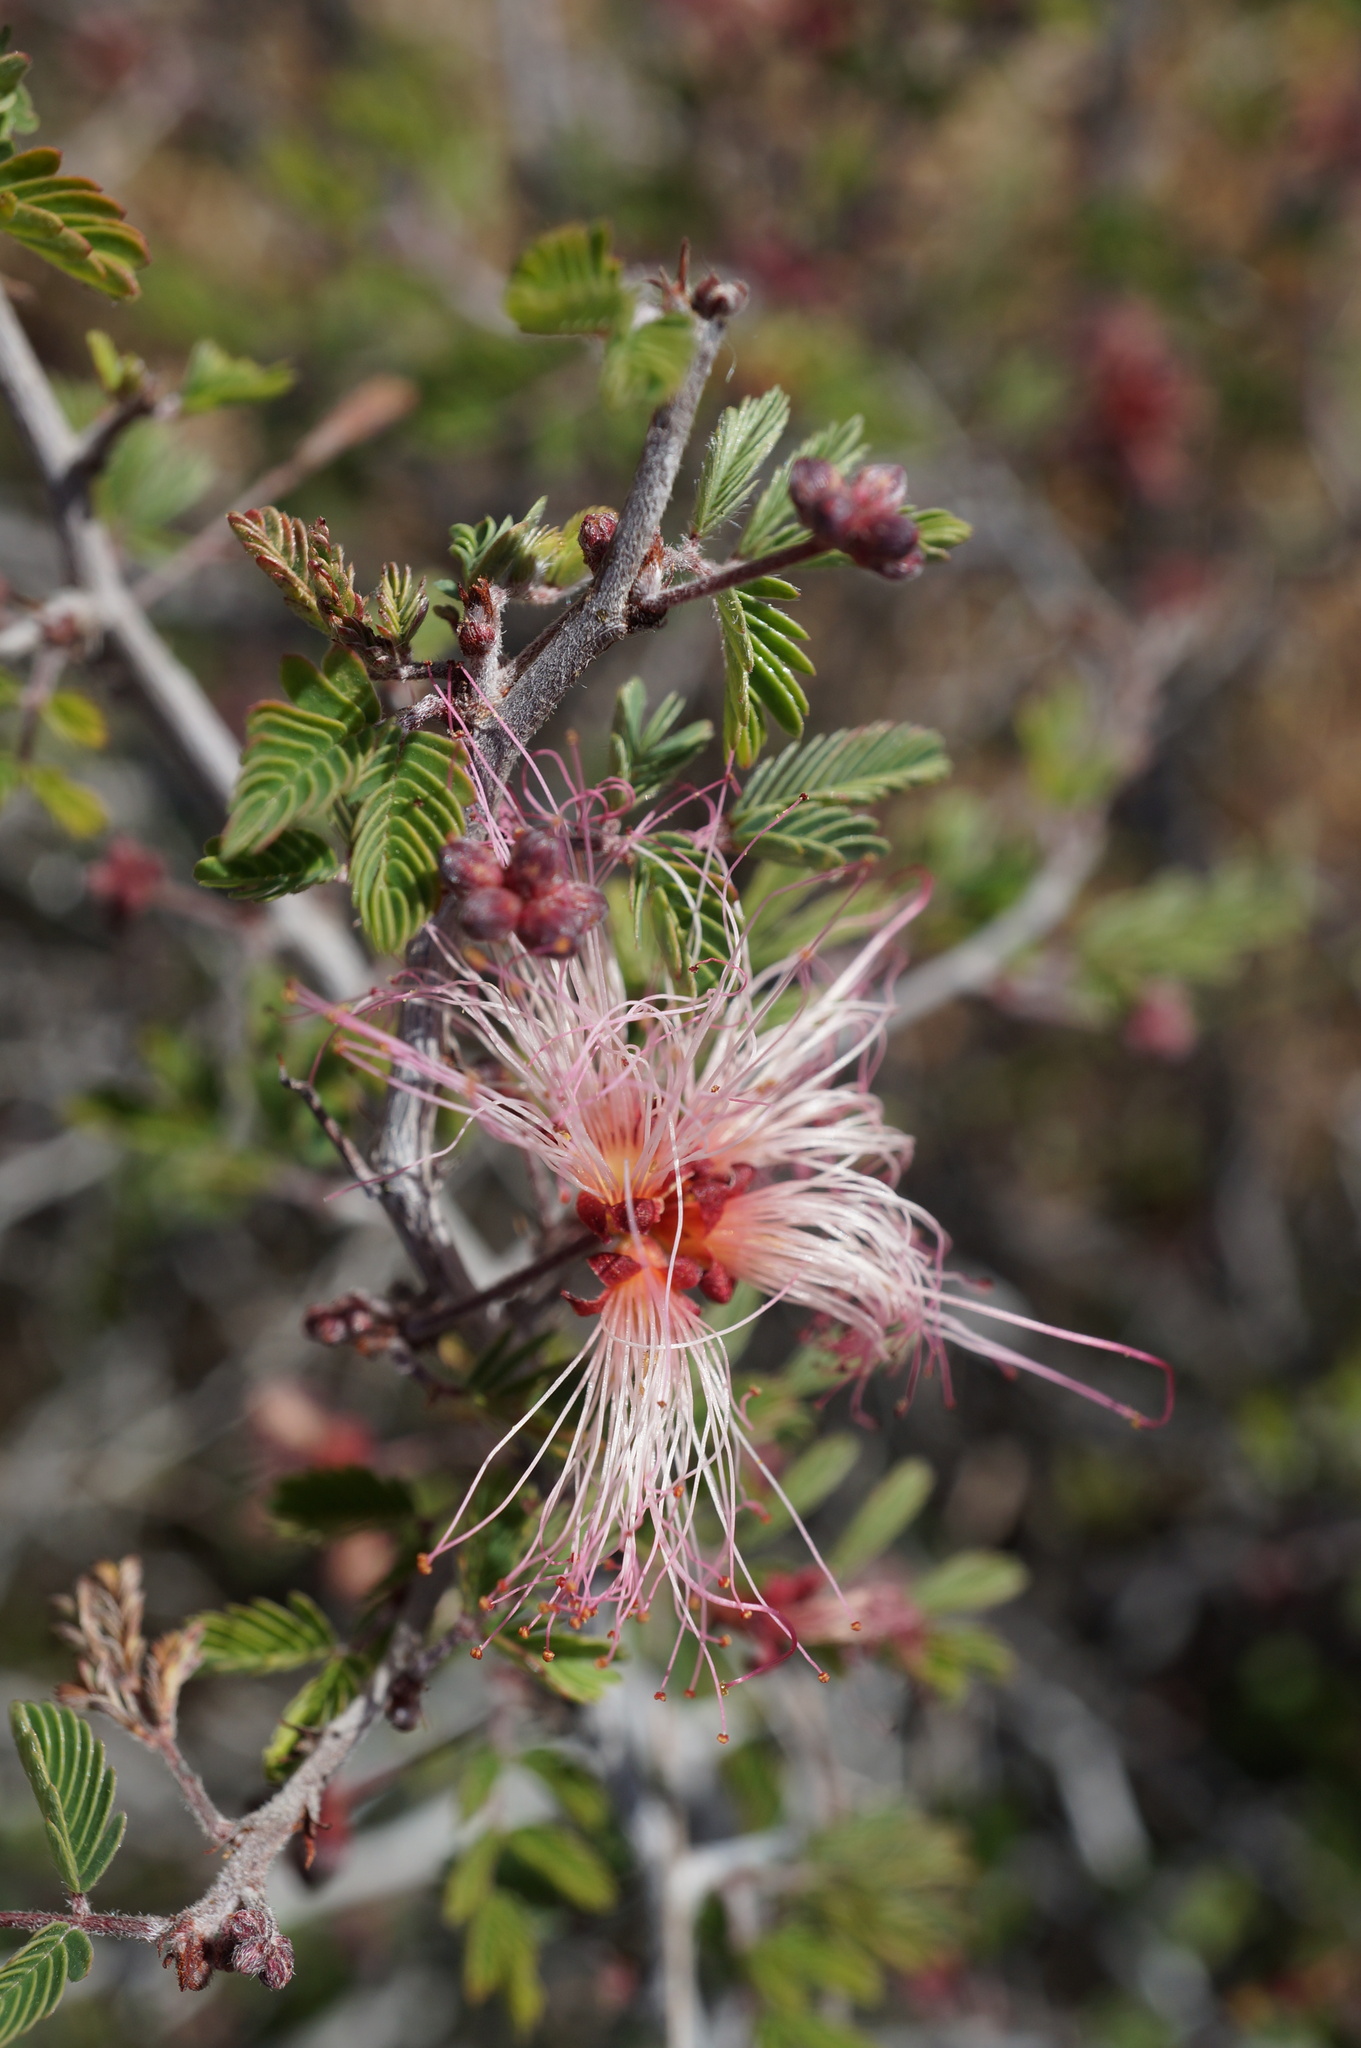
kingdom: Plantae
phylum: Tracheophyta
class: Magnoliopsida
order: Fabales
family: Fabaceae
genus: Calliandra
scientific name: Calliandra eriophylla
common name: Fairy-duster
